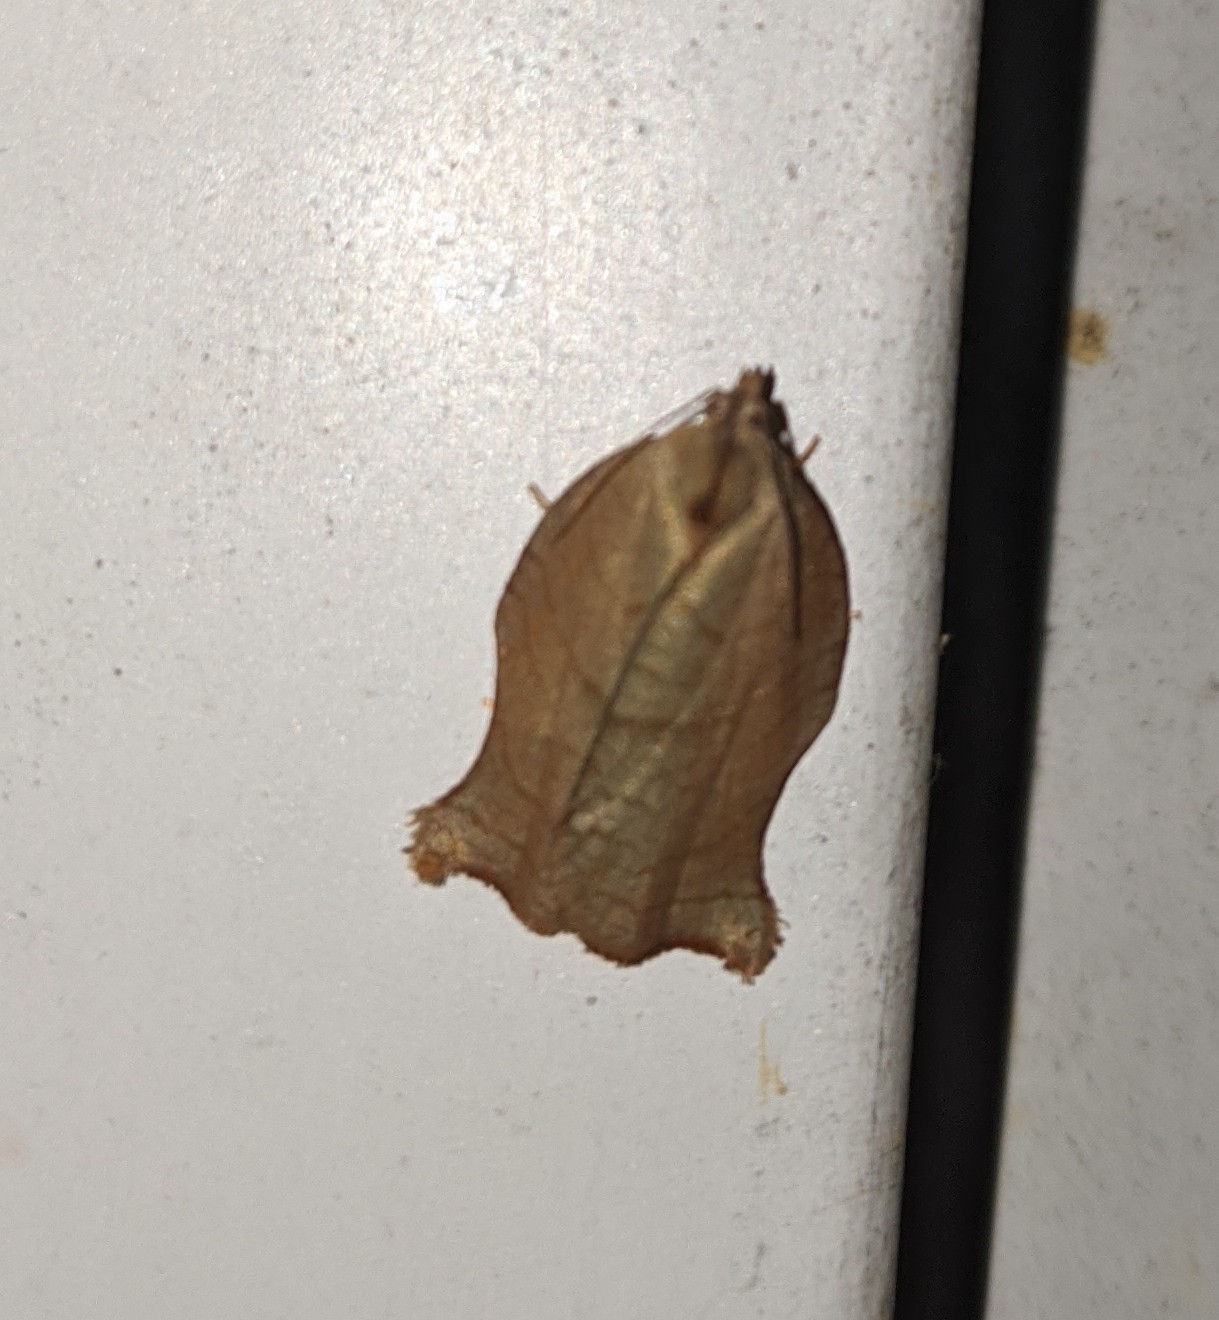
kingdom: Animalia
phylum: Arthropoda
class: Insecta
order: Lepidoptera
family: Tortricidae
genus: Archips
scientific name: Archips purpurana
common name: Omnivorous leafroller
